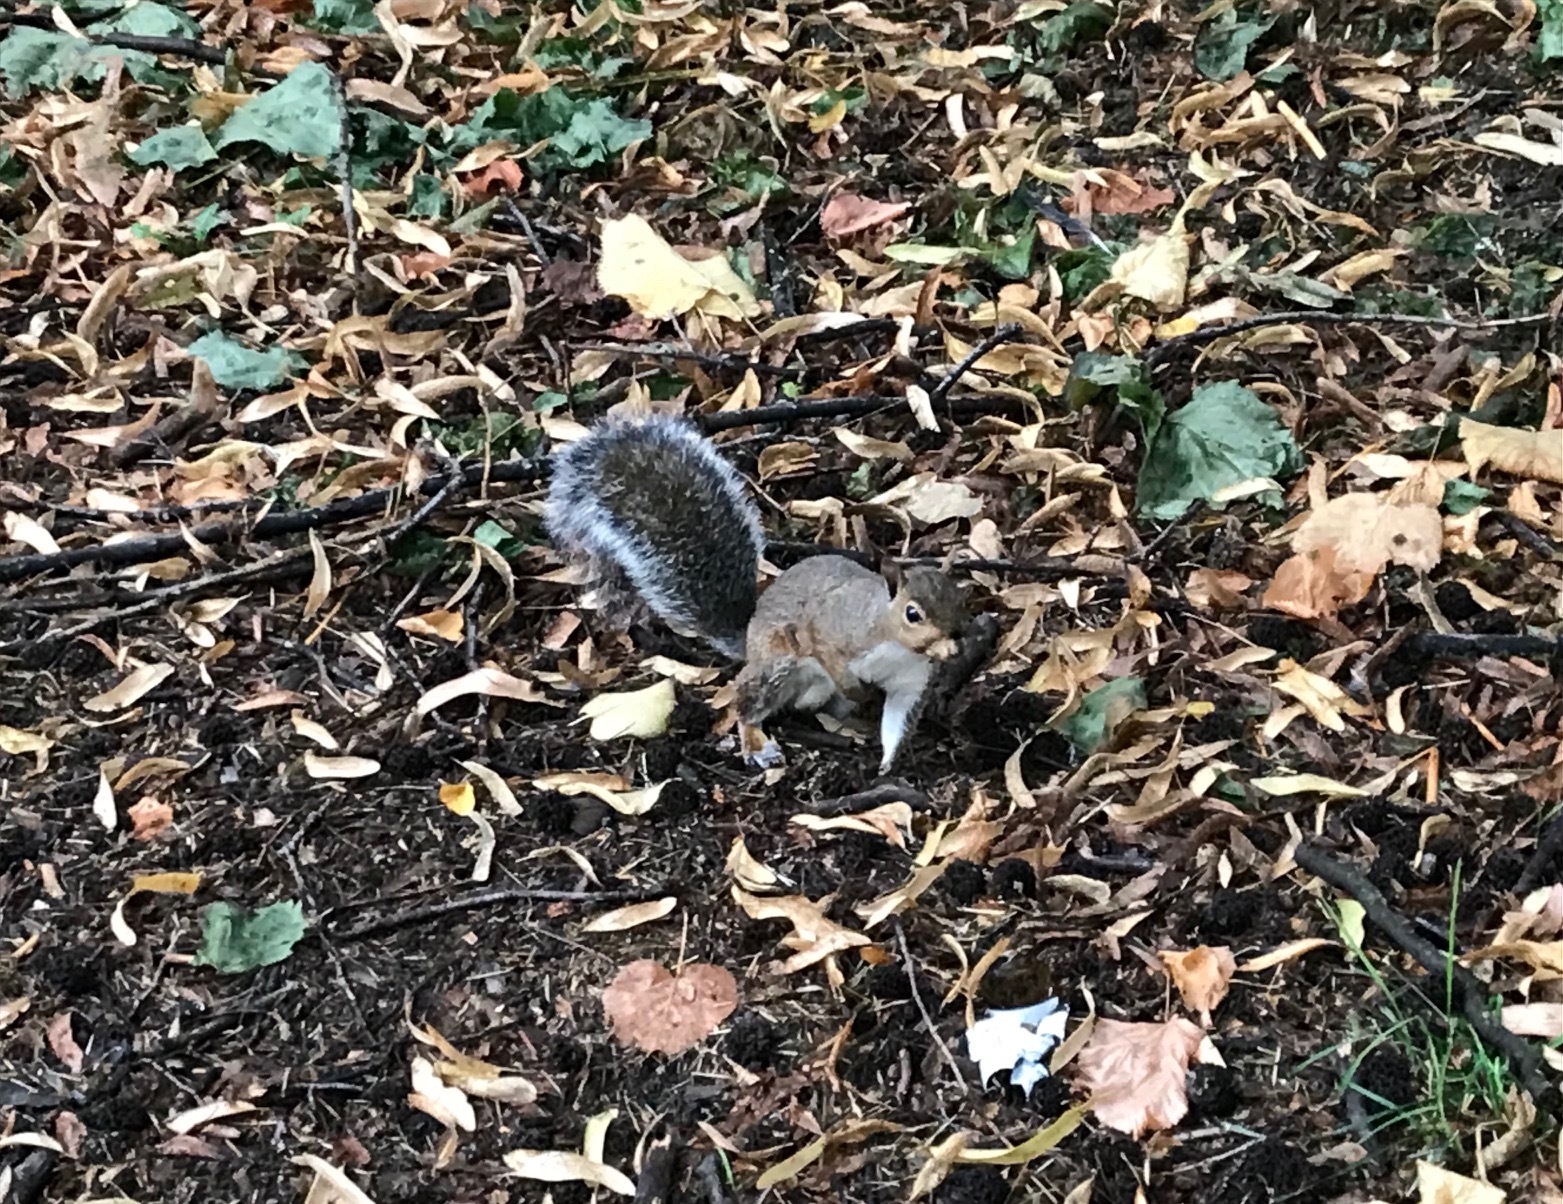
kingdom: Animalia
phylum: Chordata
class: Mammalia
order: Rodentia
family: Sciuridae
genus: Sciurus
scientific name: Sciurus carolinensis
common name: Eastern gray squirrel
